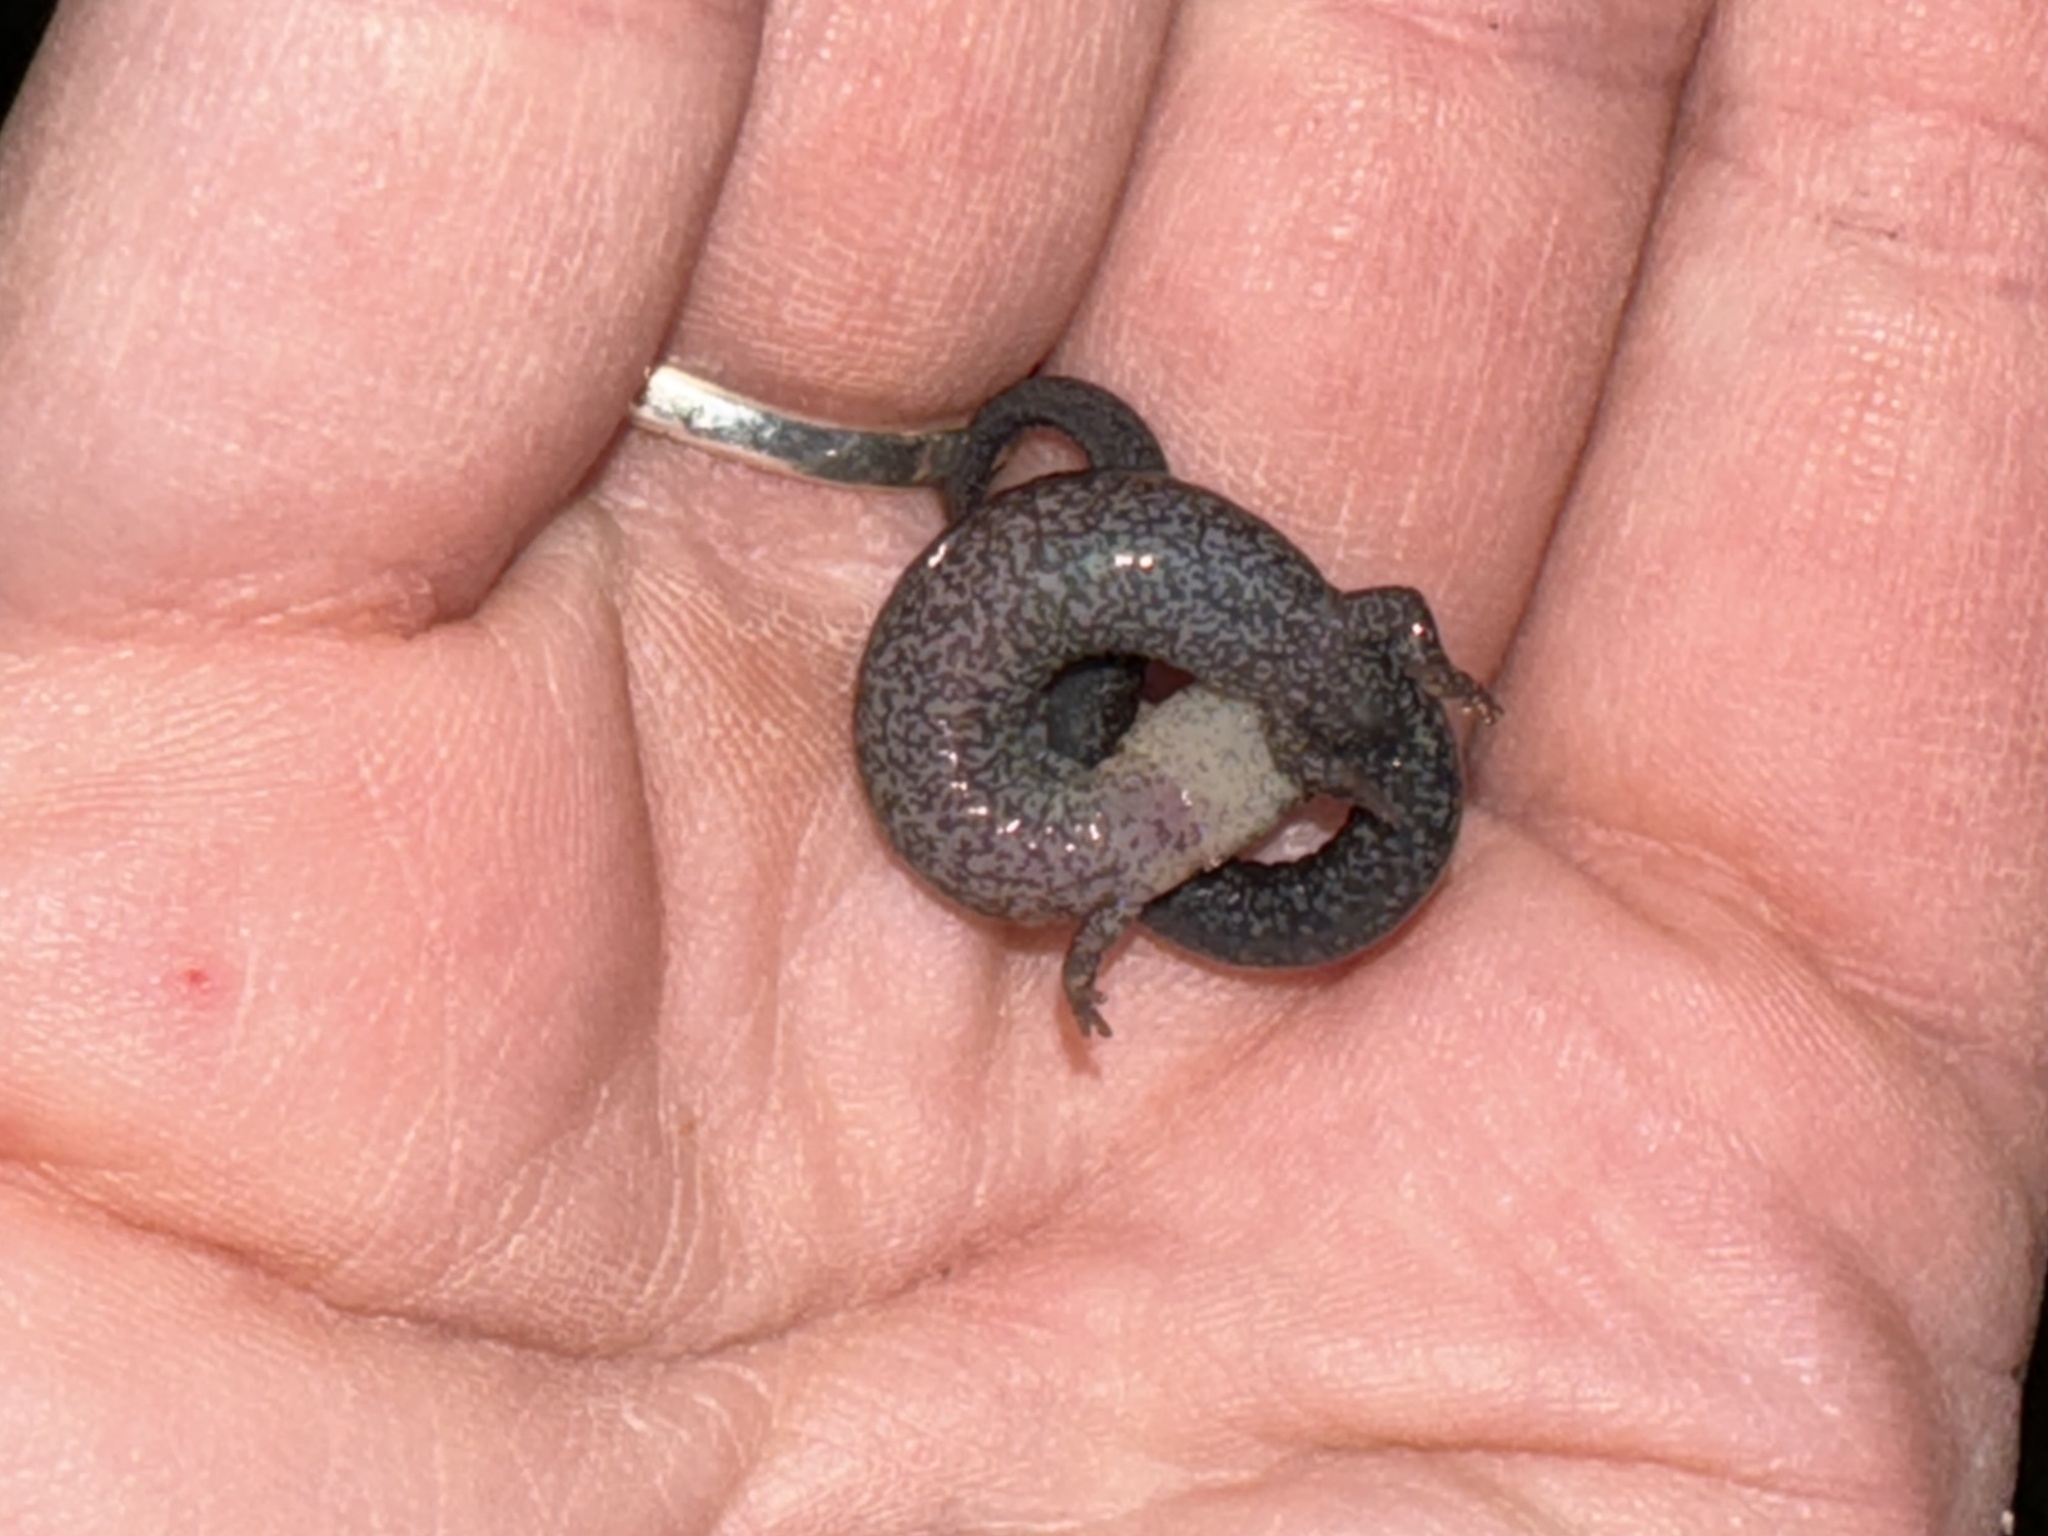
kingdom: Animalia
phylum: Chordata
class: Amphibia
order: Caudata
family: Plethodontidae
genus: Plethodon
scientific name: Plethodon cinereus
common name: Redback salamander
